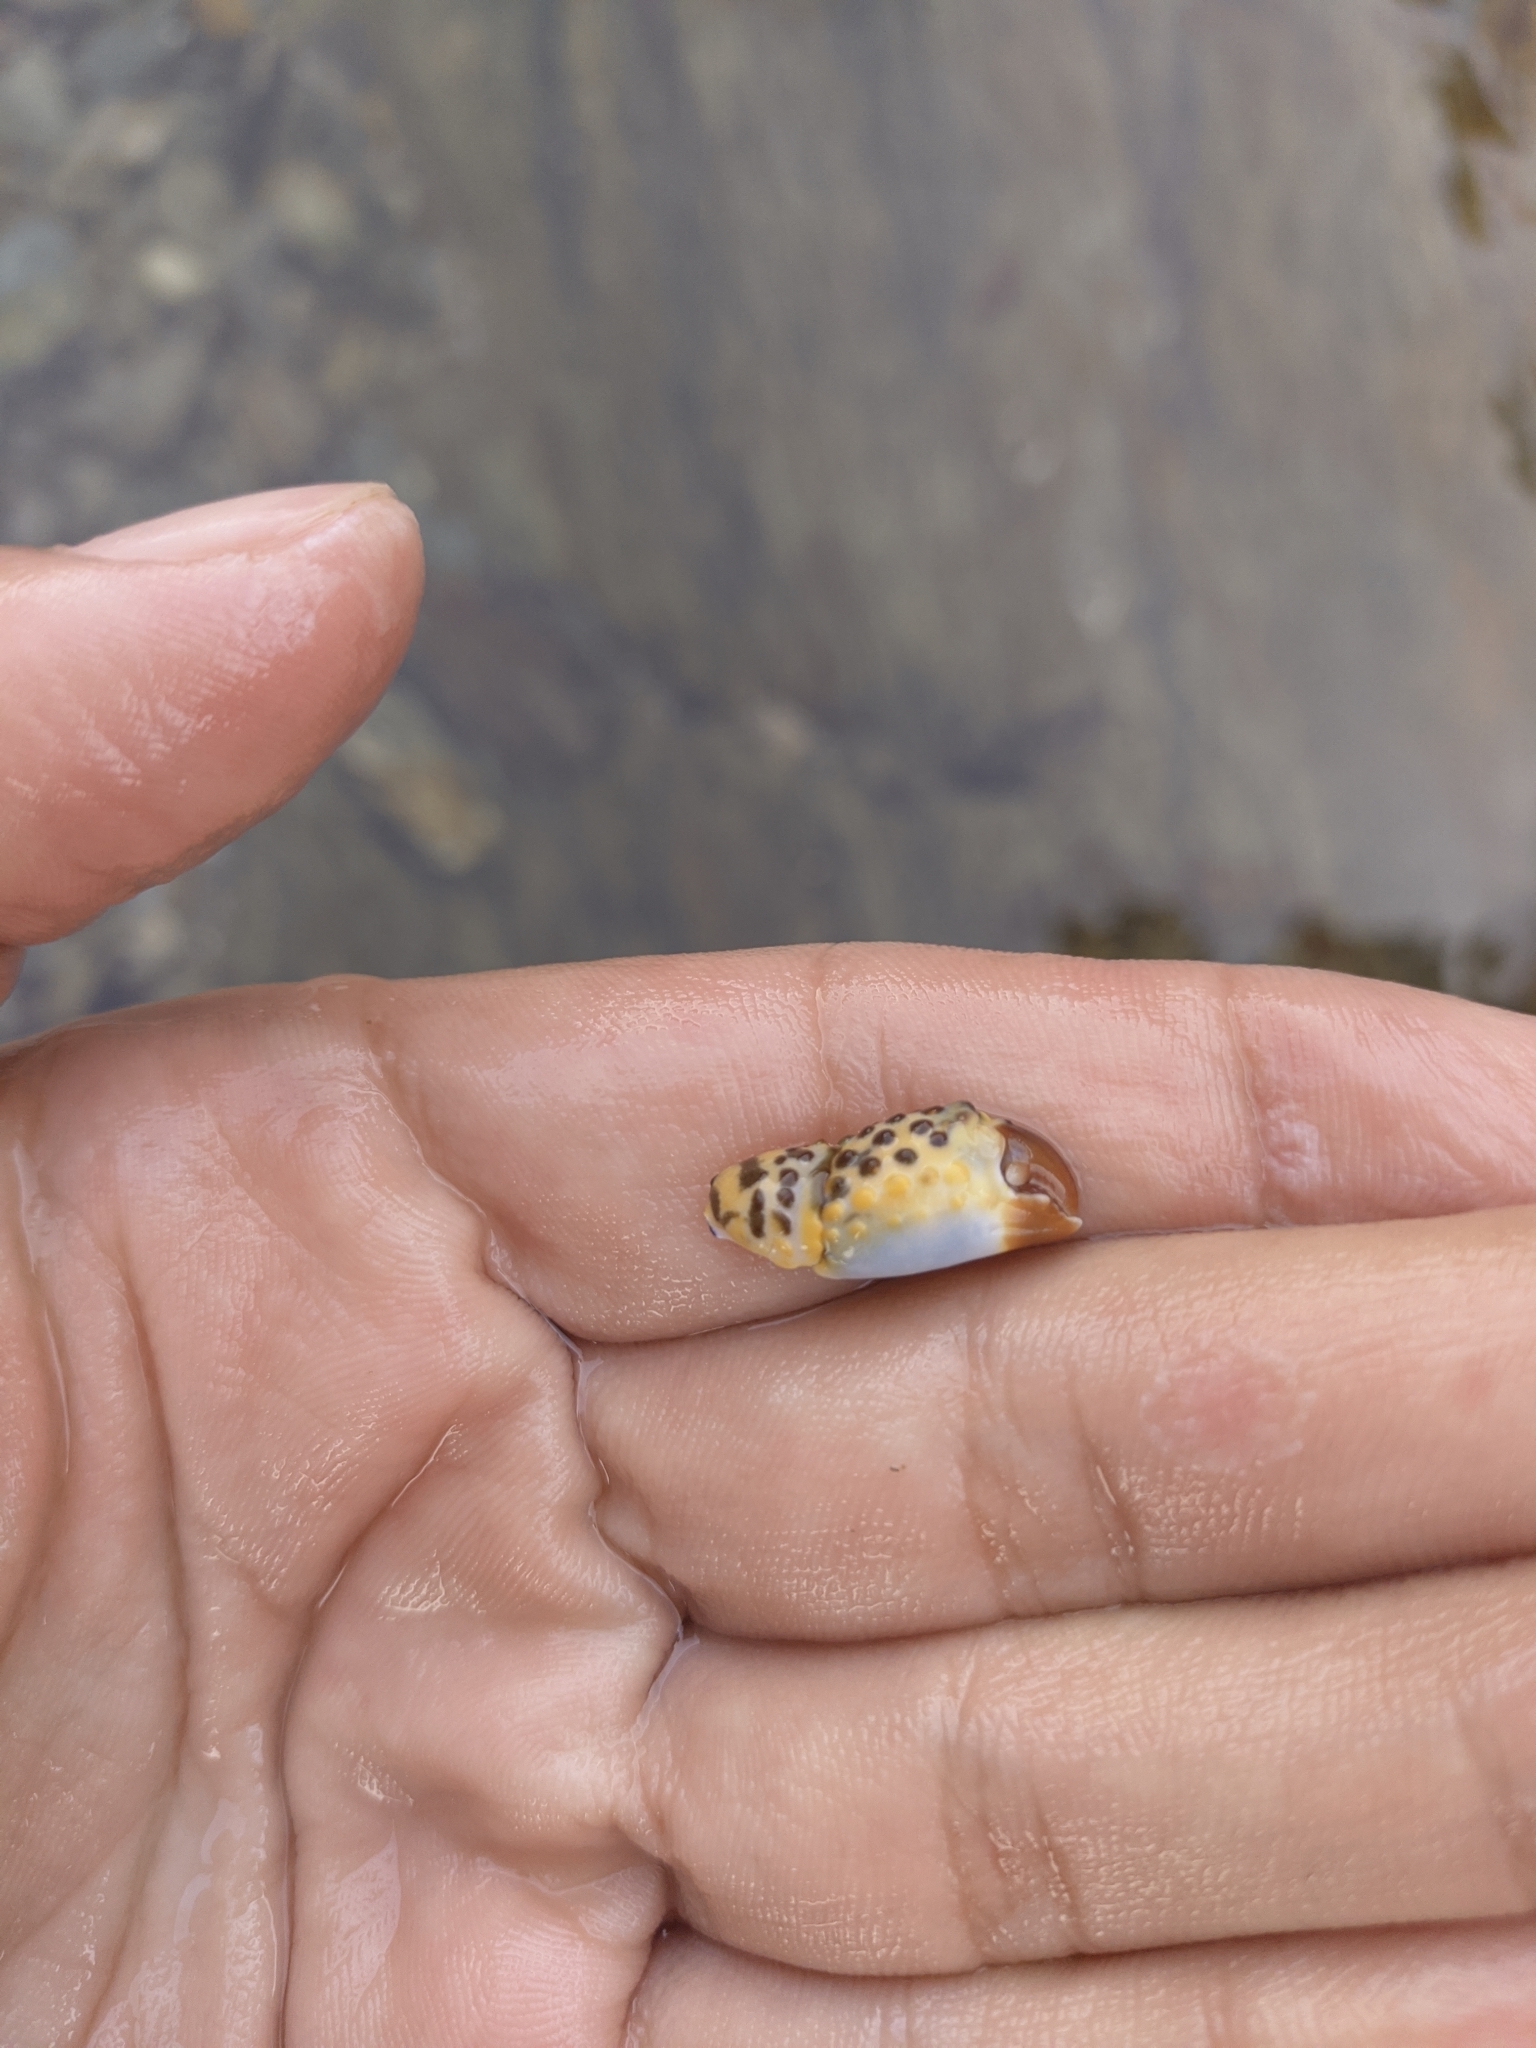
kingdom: Animalia
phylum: Arthropoda
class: Malacostraca
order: Decapoda
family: Eriphiidae
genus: Eriphia
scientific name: Eriphia gonagra
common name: Calico crab
